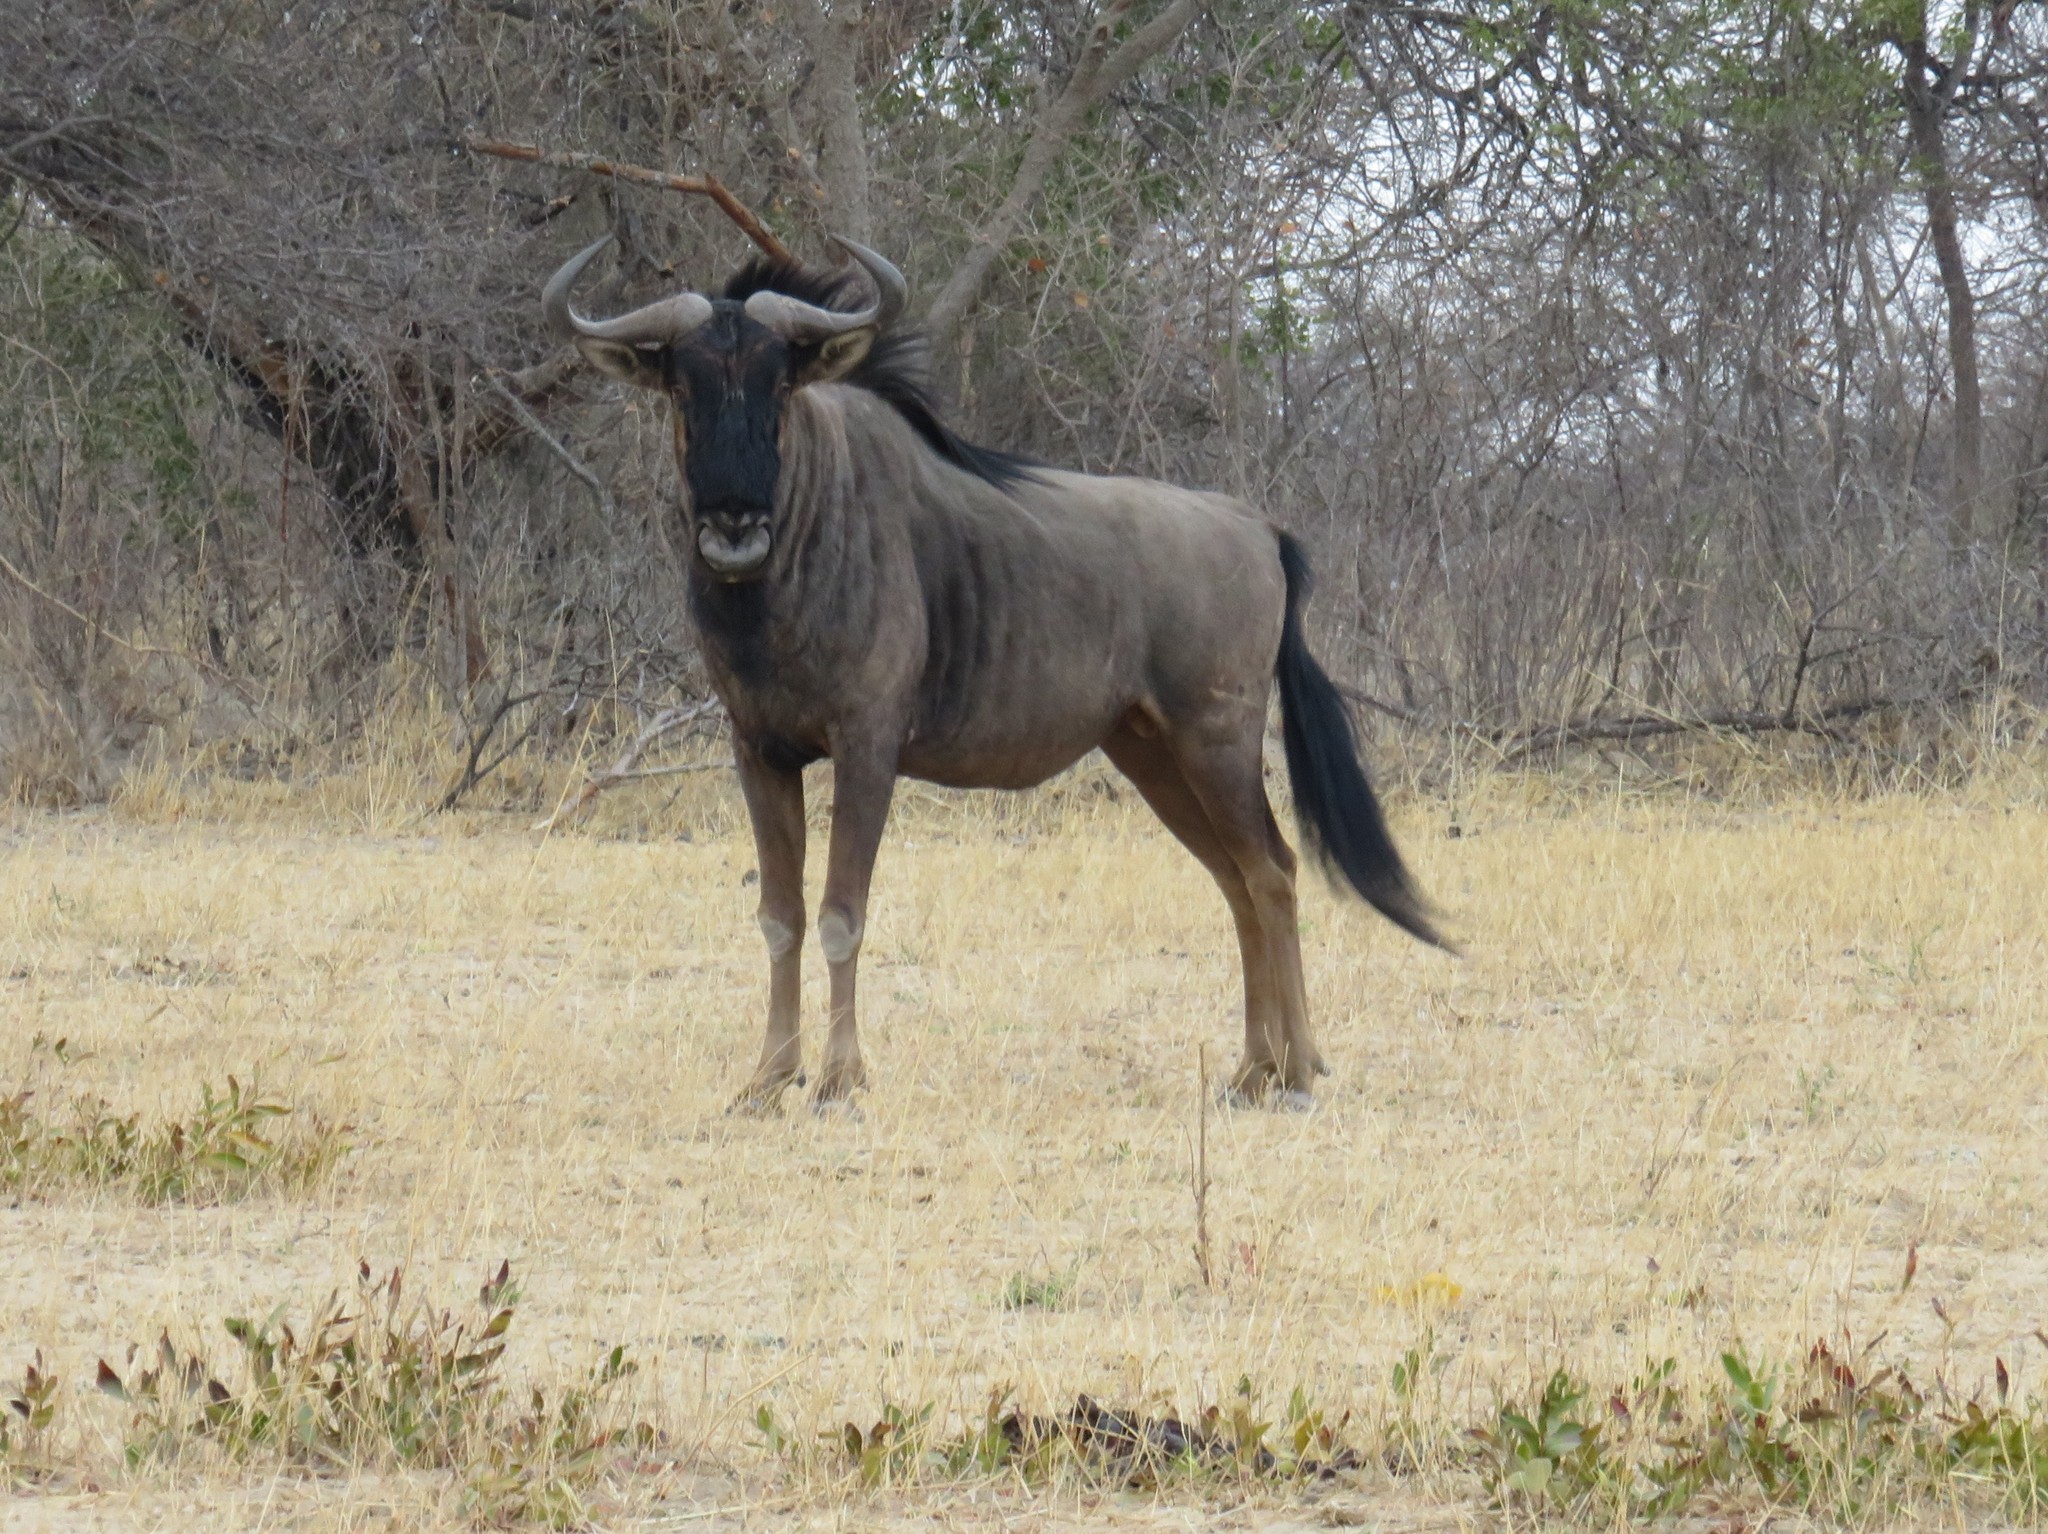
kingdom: Animalia
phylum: Chordata
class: Mammalia
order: Artiodactyla
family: Bovidae
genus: Connochaetes
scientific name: Connochaetes taurinus
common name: Blue wildebeest
